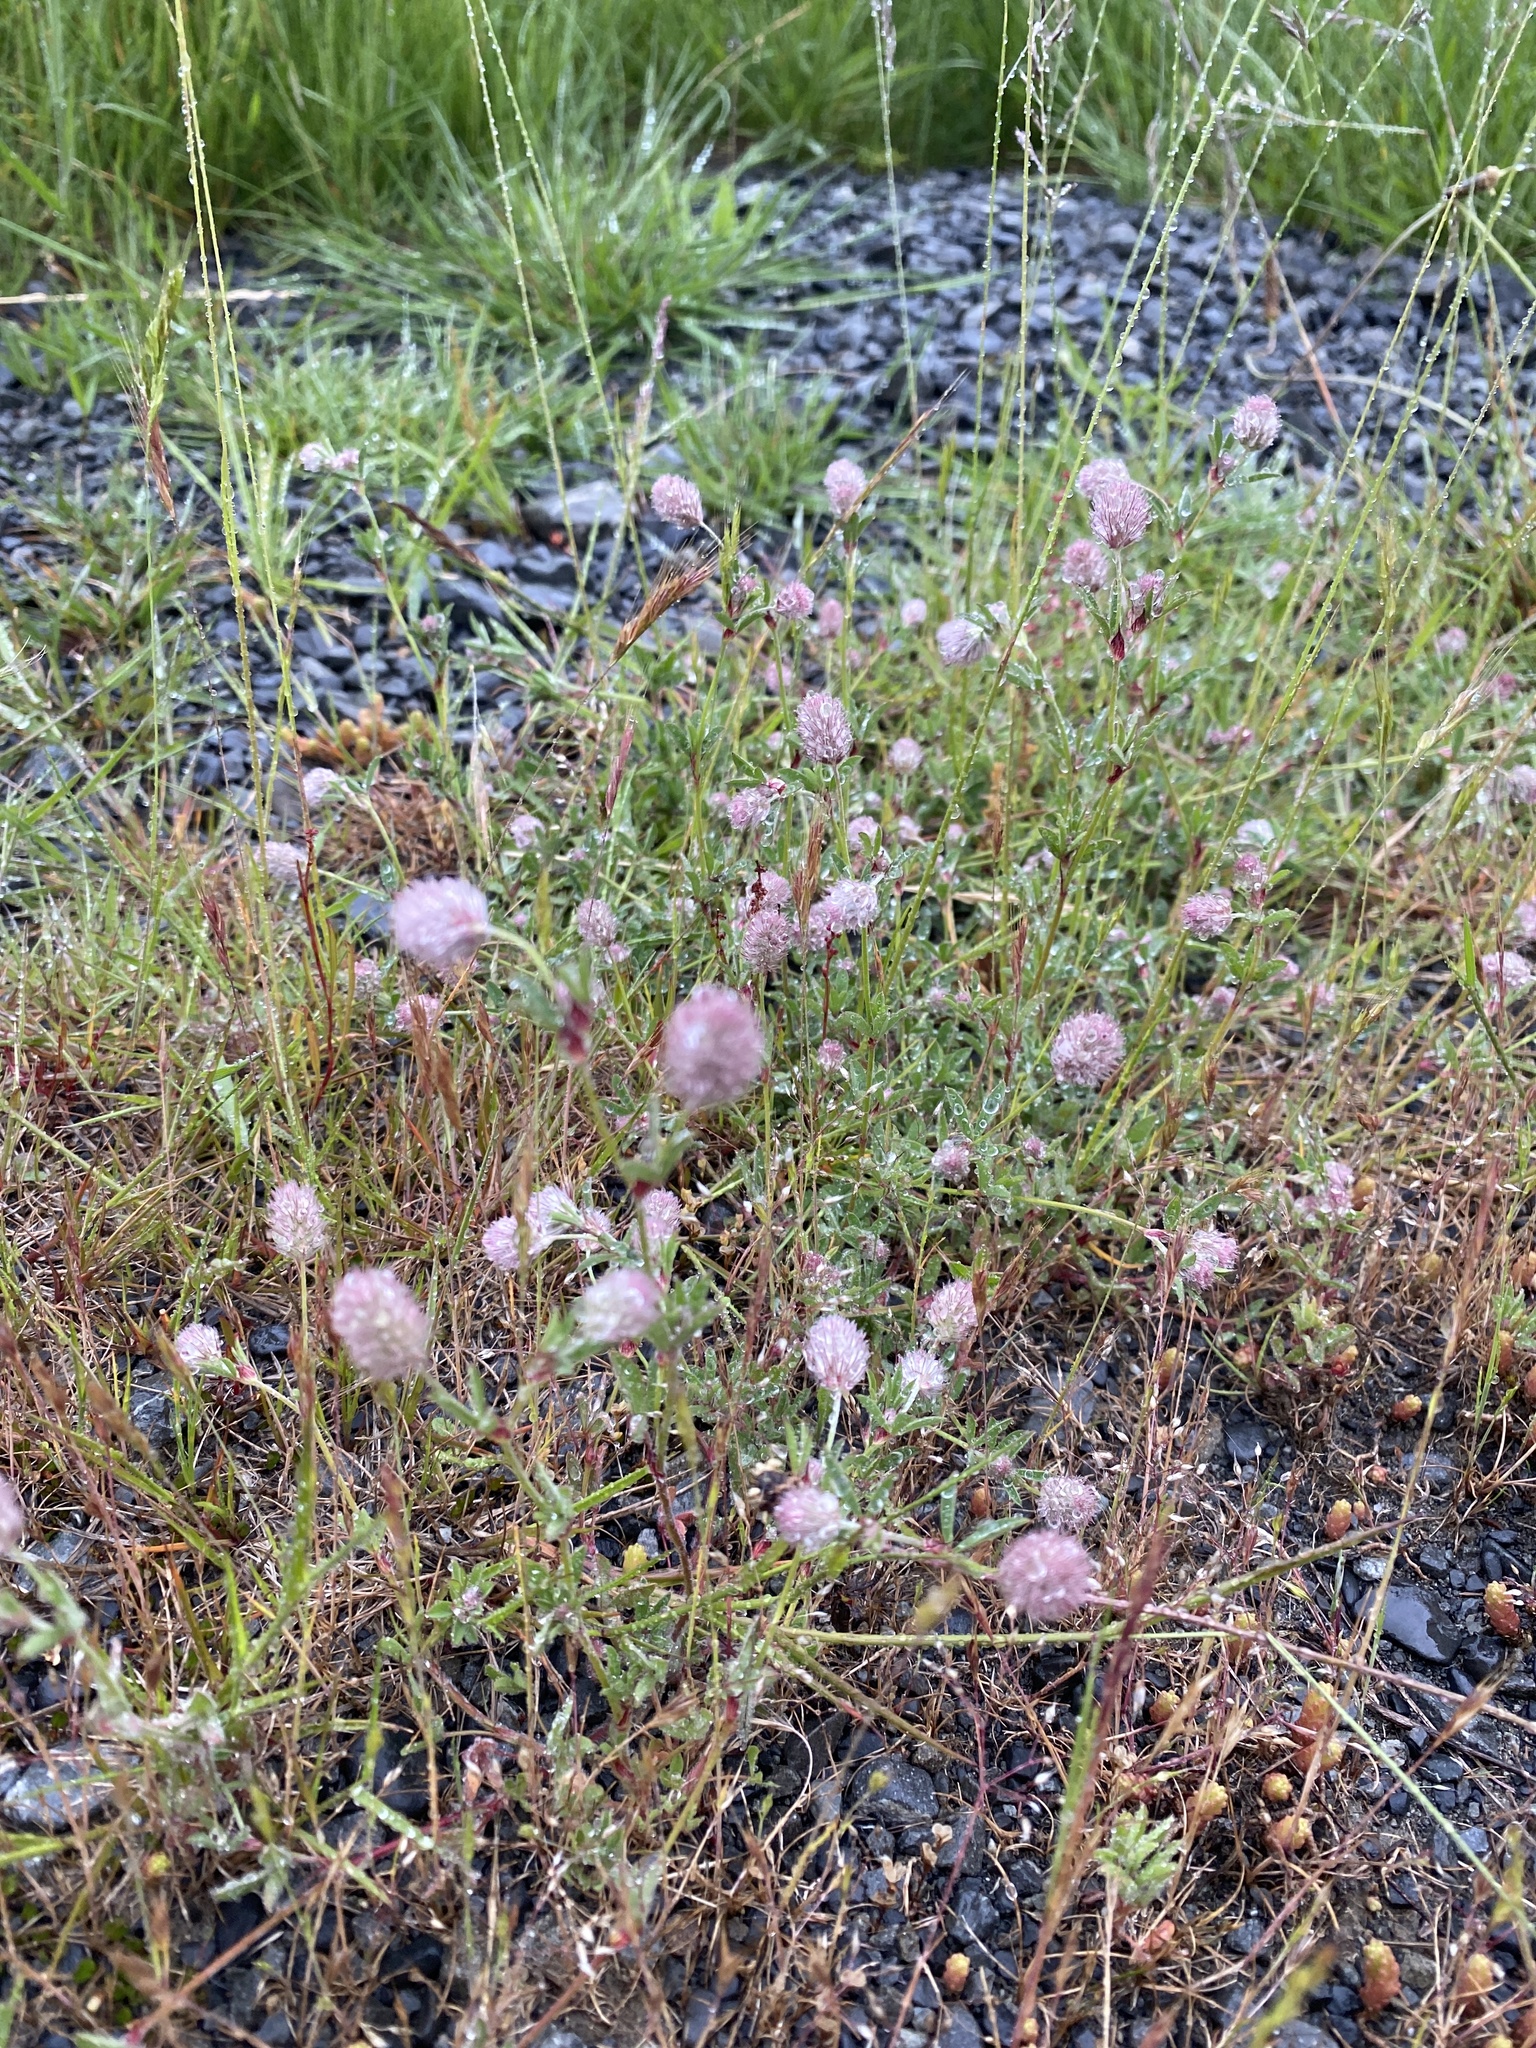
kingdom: Plantae
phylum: Tracheophyta
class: Magnoliopsida
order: Fabales
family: Fabaceae
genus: Trifolium
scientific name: Trifolium arvense
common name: Hare's-foot clover
